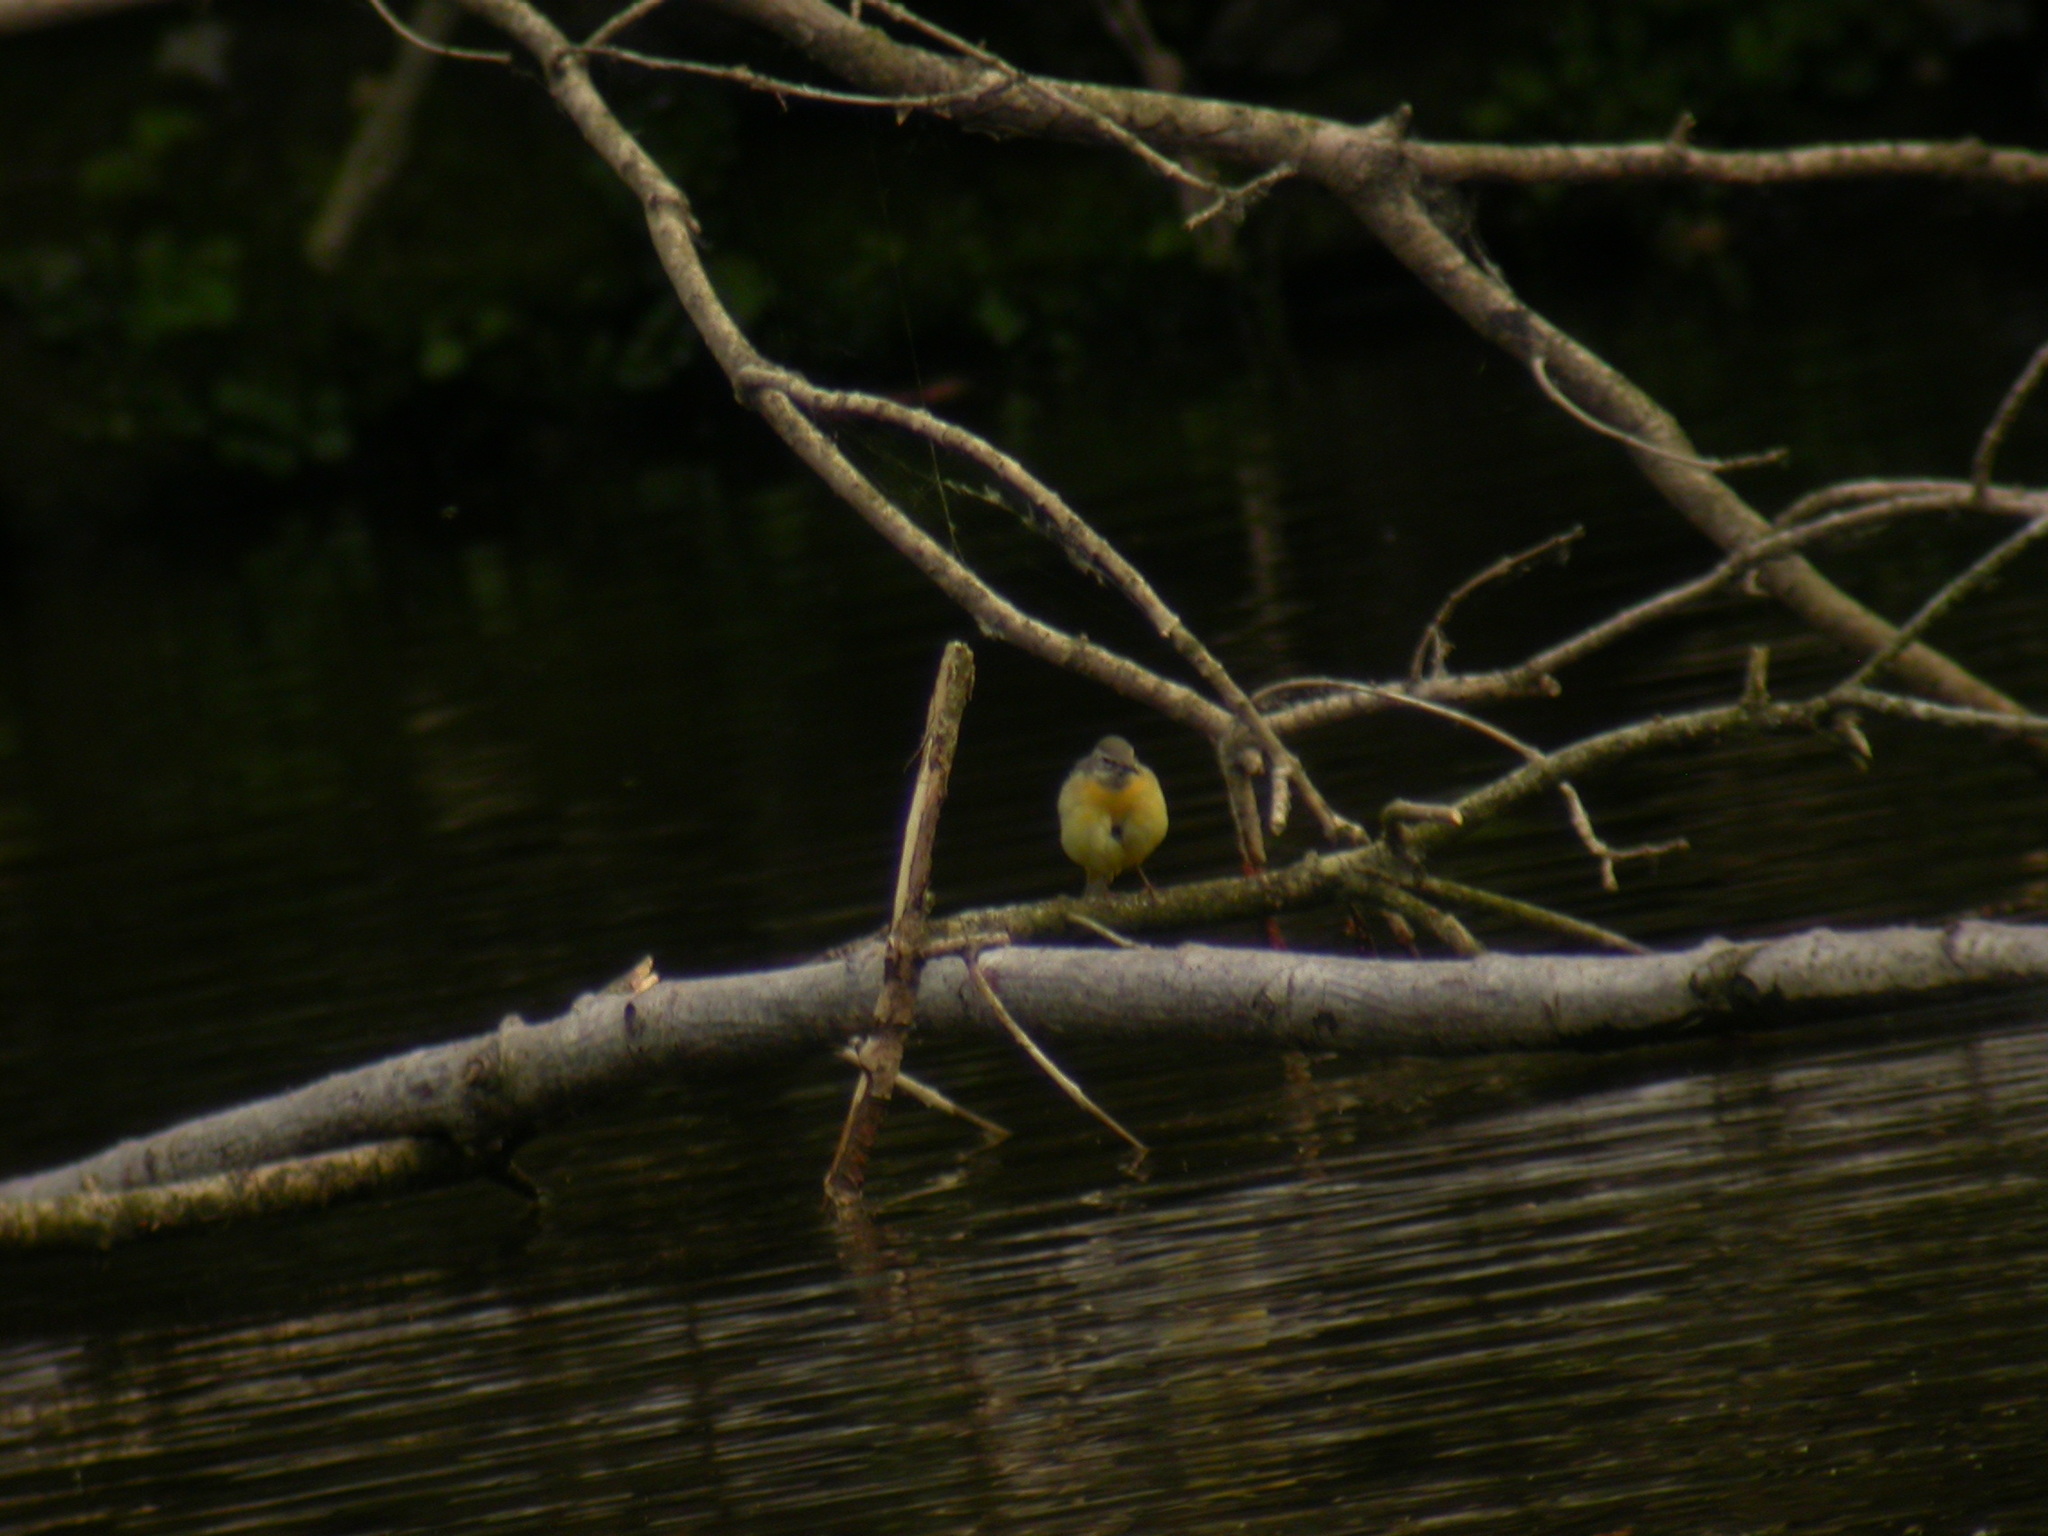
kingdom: Animalia
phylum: Chordata
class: Aves
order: Passeriformes
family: Motacillidae
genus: Motacilla
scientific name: Motacilla cinerea
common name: Grey wagtail
